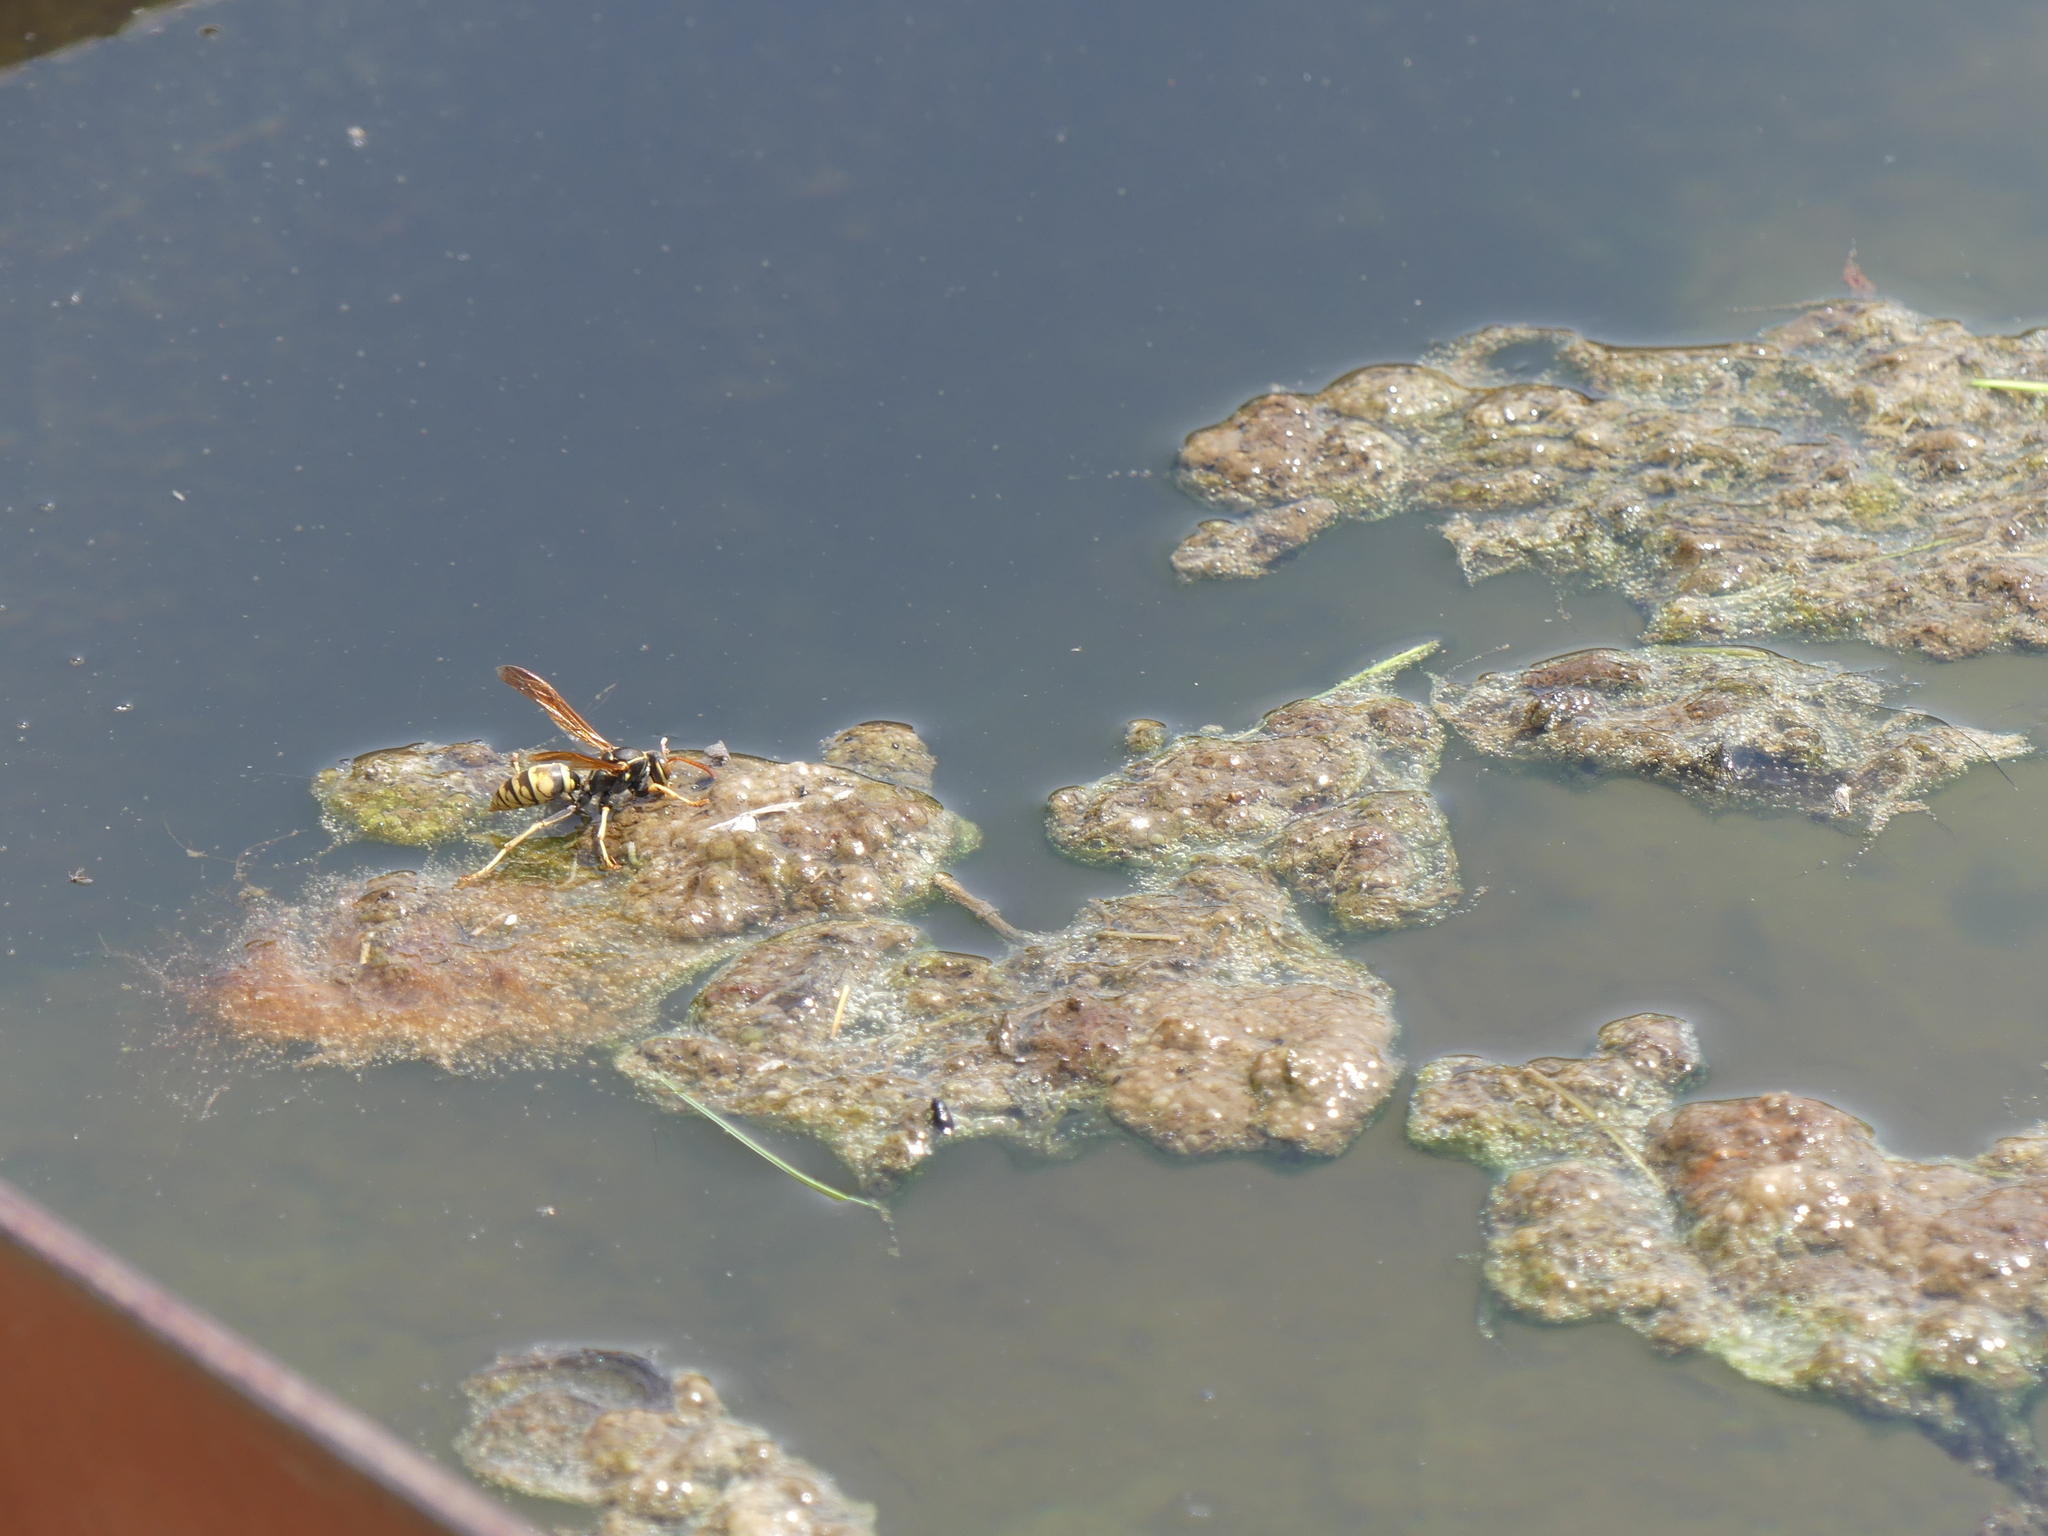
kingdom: Animalia
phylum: Arthropoda
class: Insecta
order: Hymenoptera
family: Eumenidae
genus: Polistes
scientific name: Polistes aurifer
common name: Paper wasp
